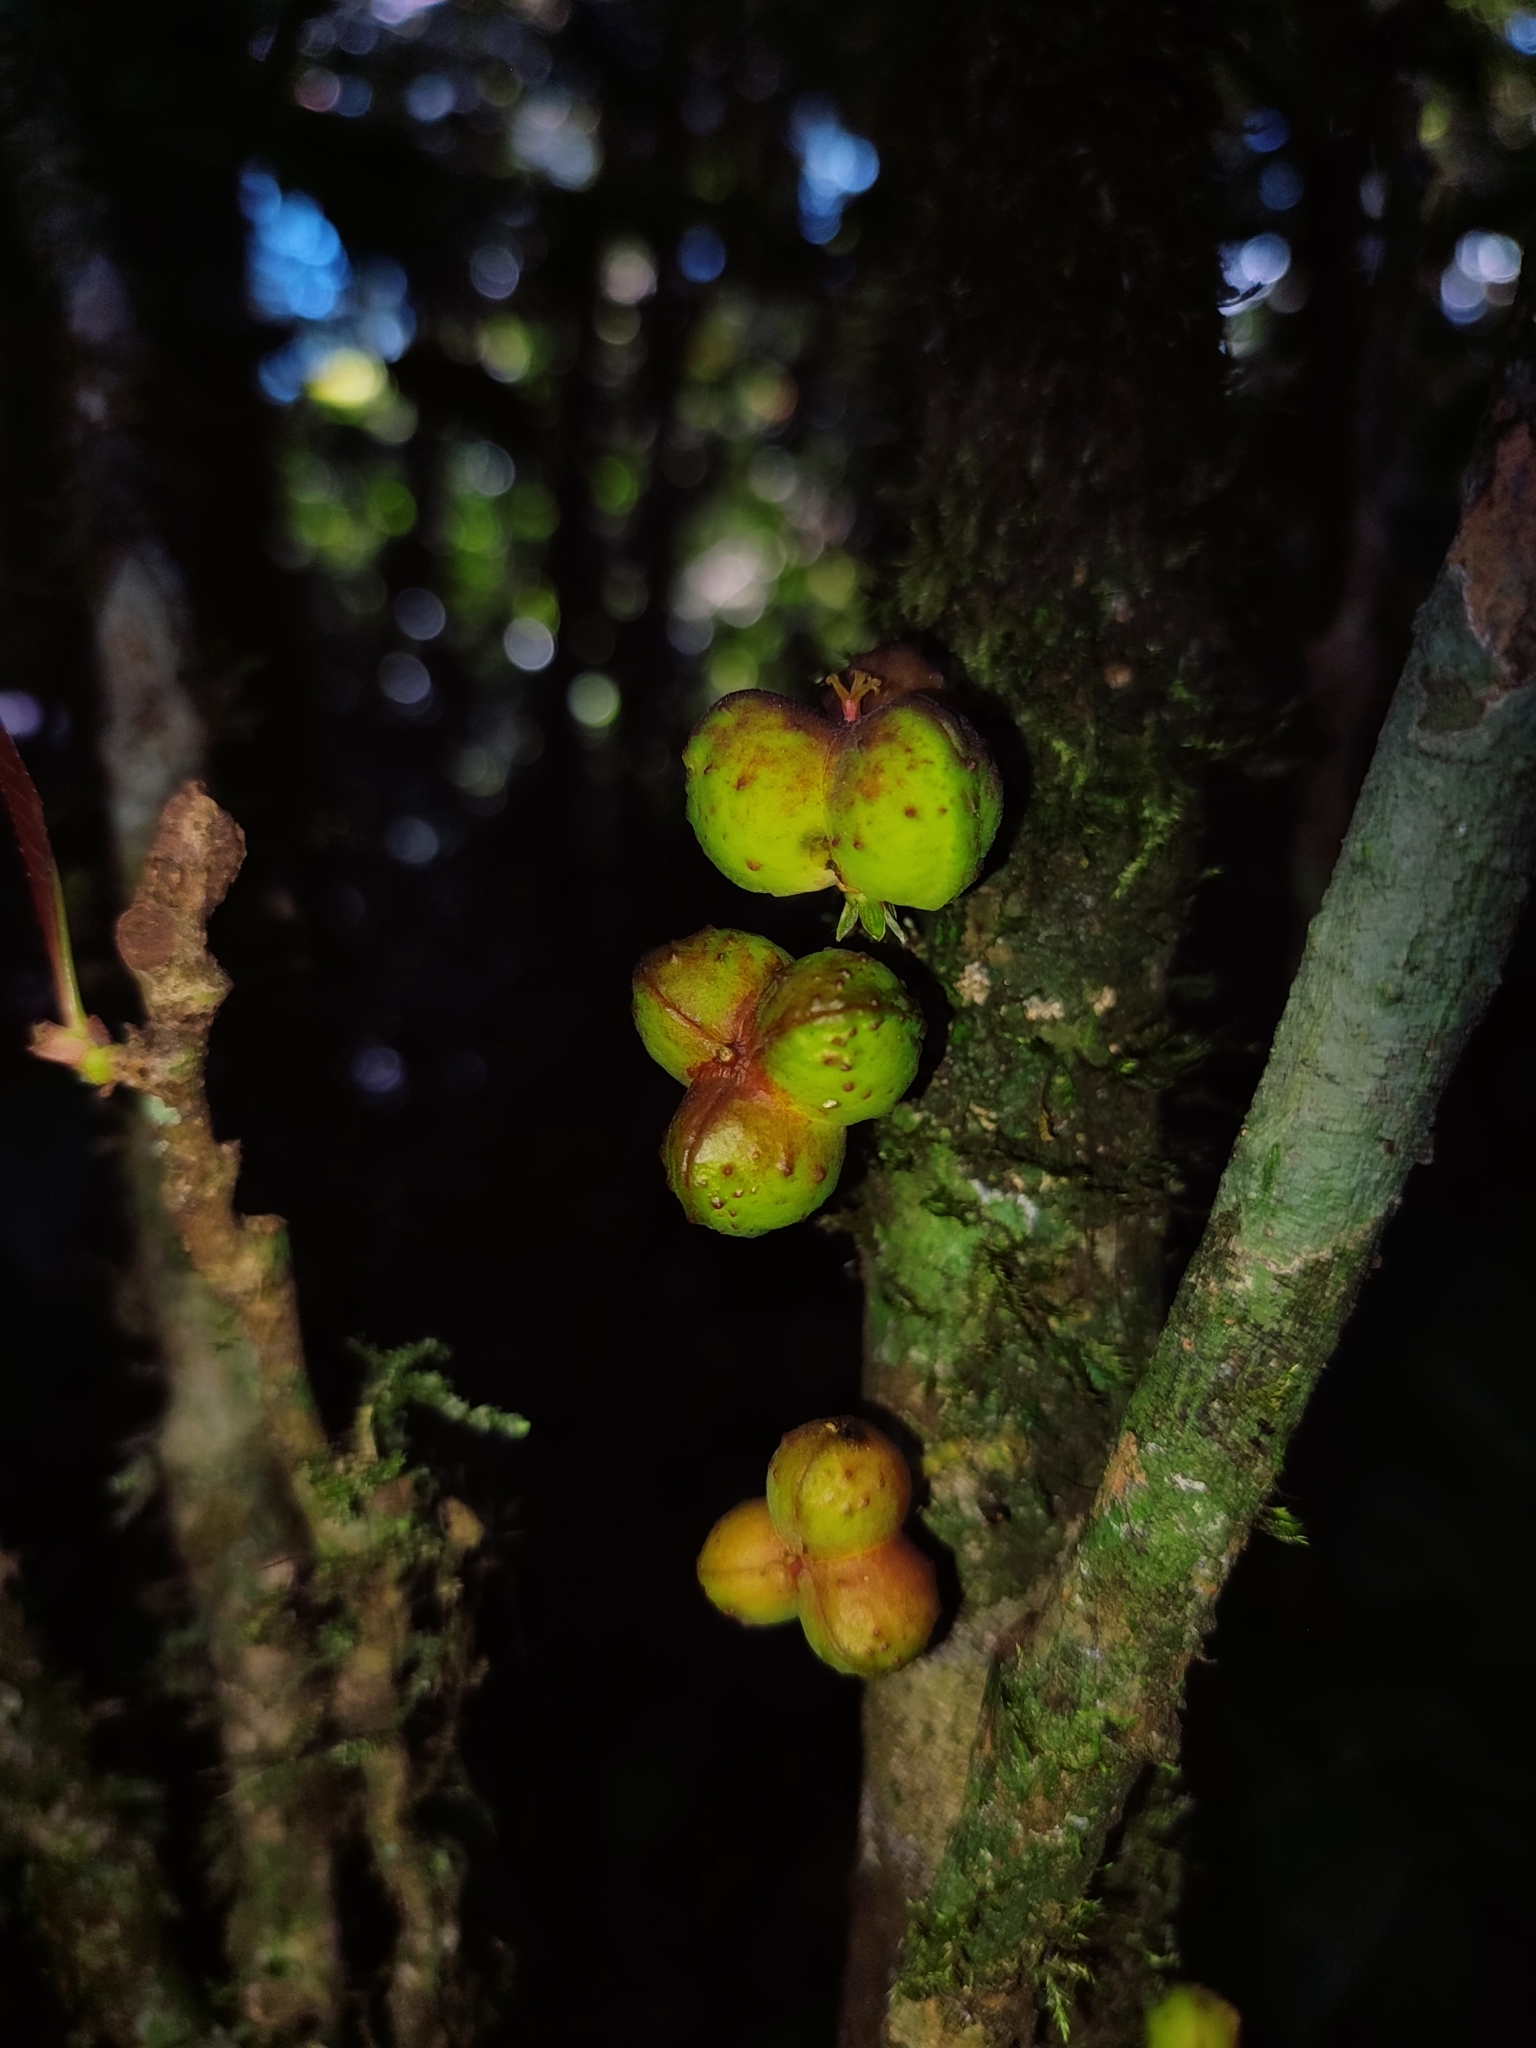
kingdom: Plantae
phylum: Tracheophyta
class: Magnoliopsida
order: Malpighiales
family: Euphorbiaceae
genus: Agrostistachys
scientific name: Agrostistachys indica
